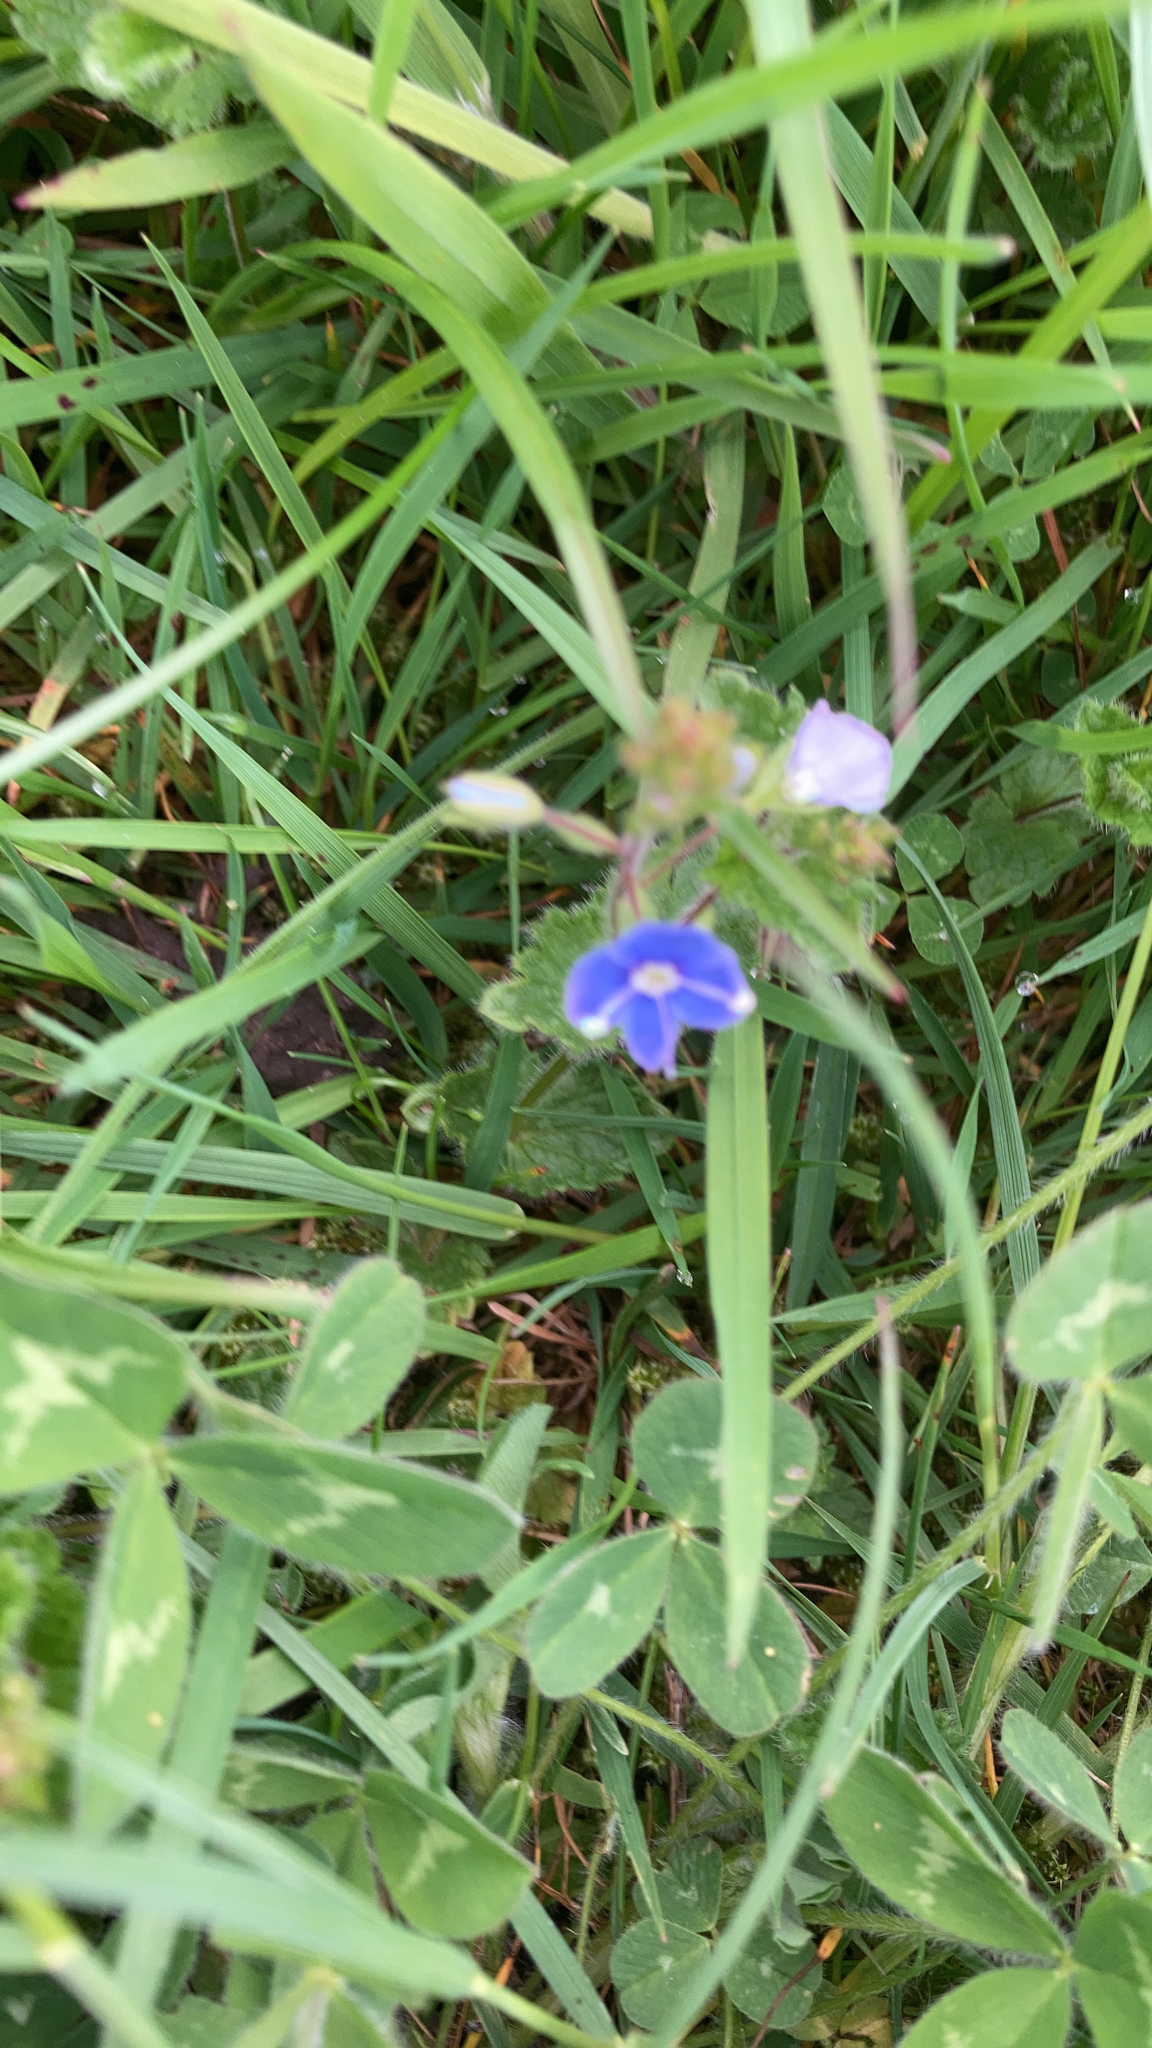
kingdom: Plantae
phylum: Tracheophyta
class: Magnoliopsida
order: Lamiales
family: Plantaginaceae
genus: Veronica
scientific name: Veronica chamaedrys
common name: Germander speedwell
